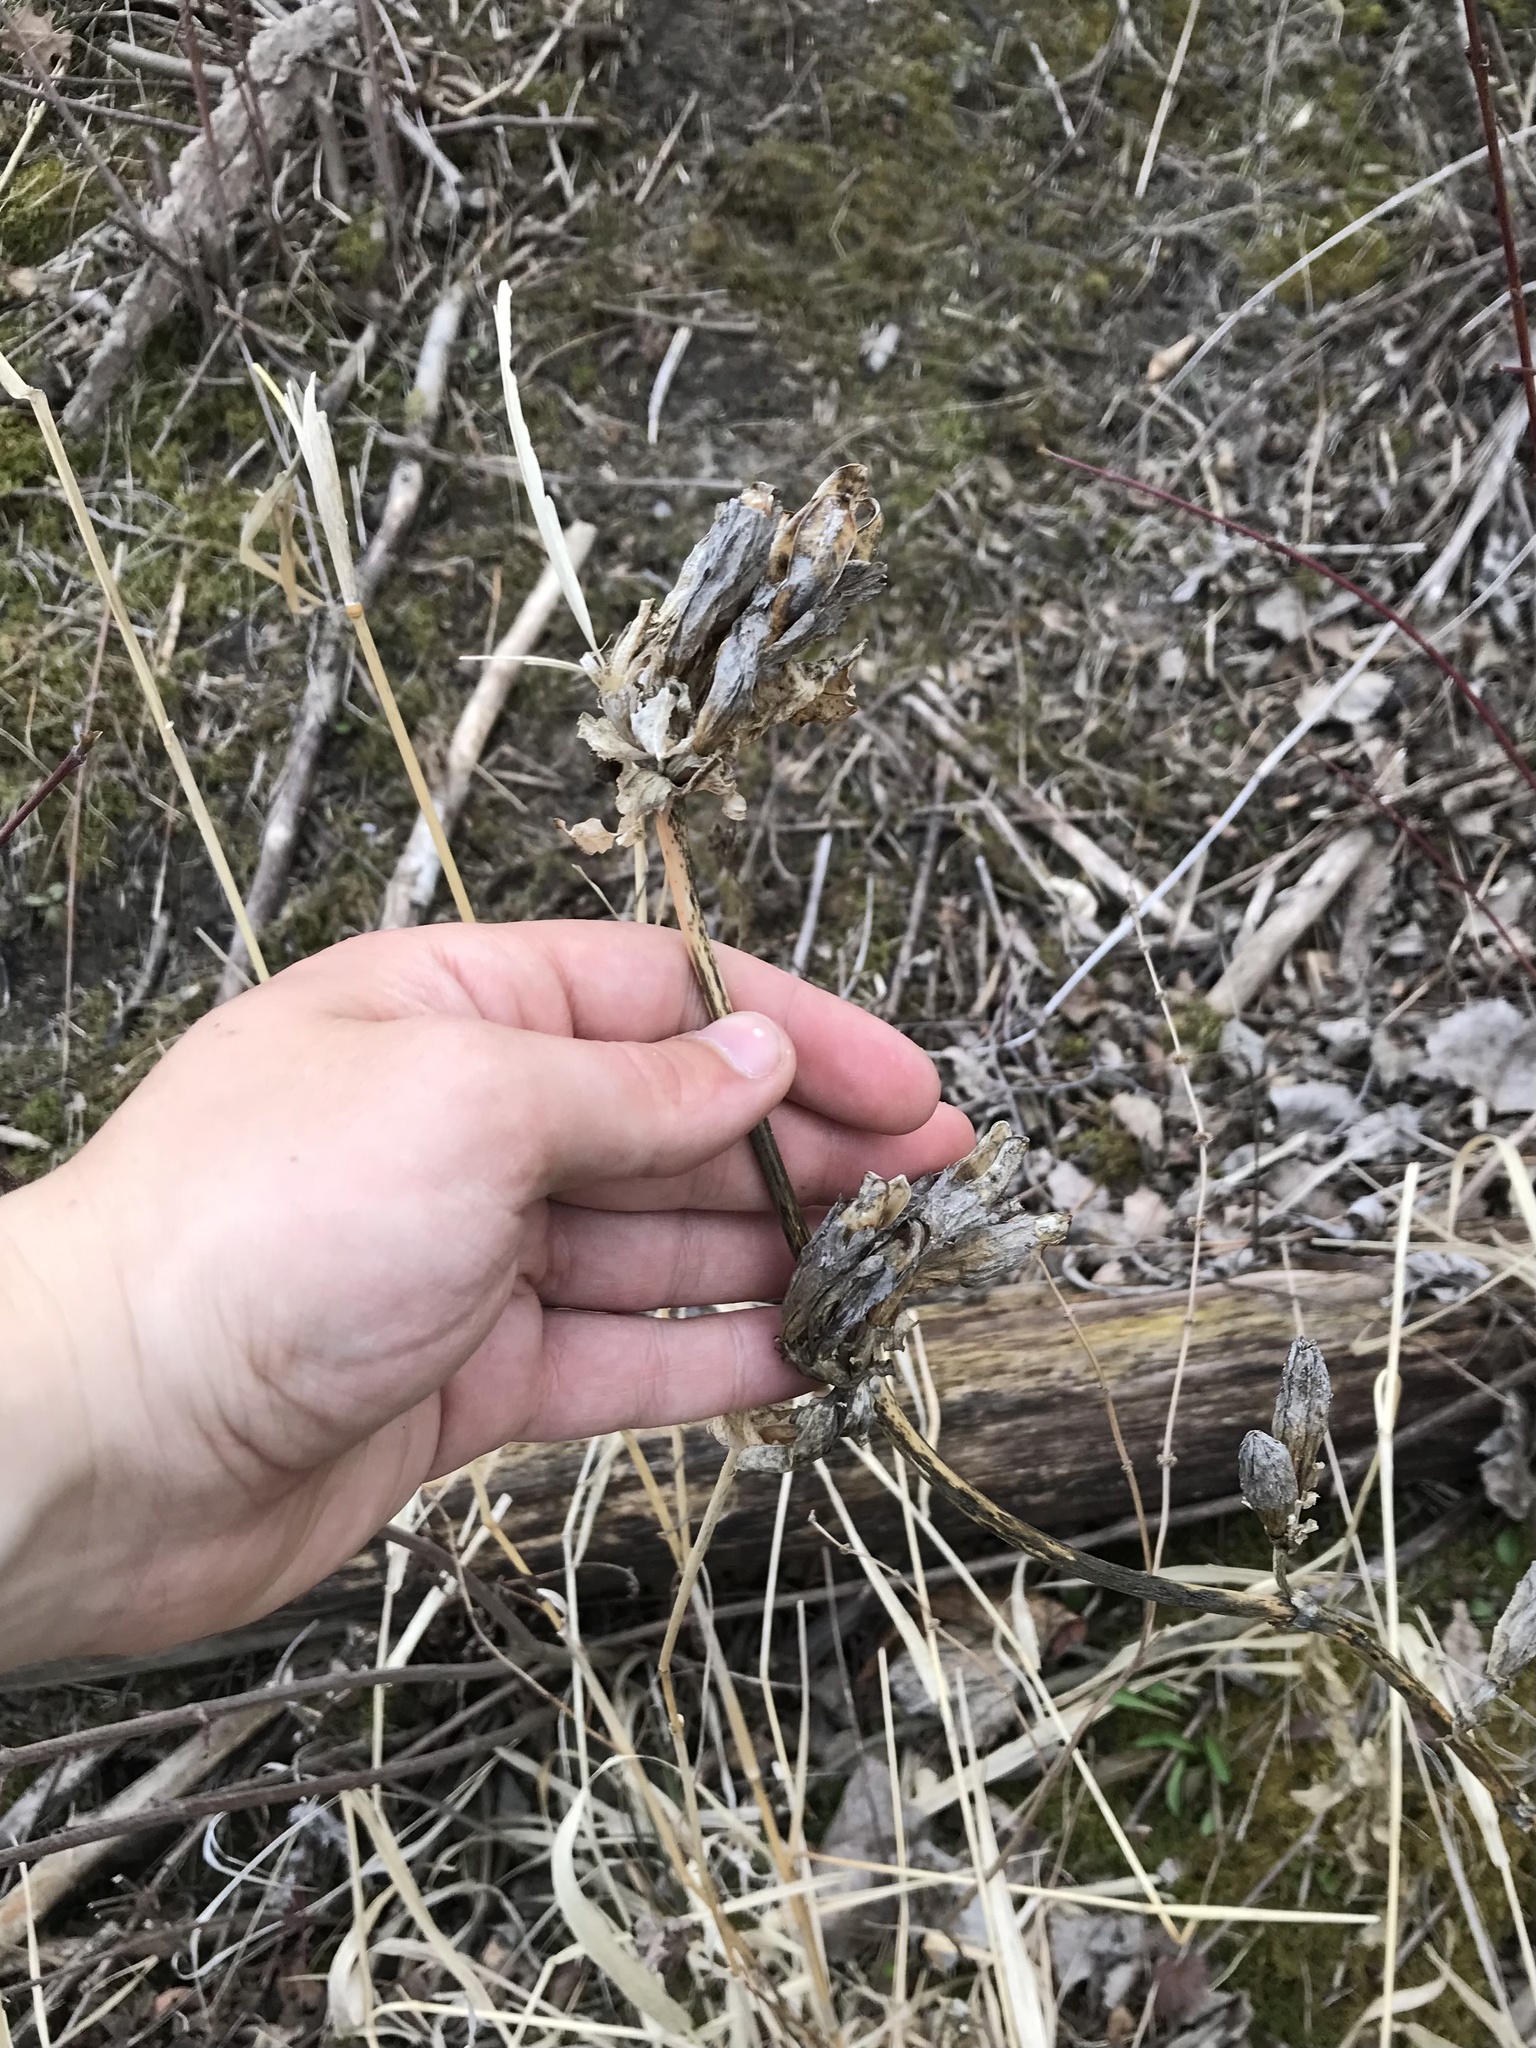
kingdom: Plantae
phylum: Tracheophyta
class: Magnoliopsida
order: Gentianales
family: Gentianaceae
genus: Gentiana
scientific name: Gentiana andrewsii
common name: Bottle gentian
